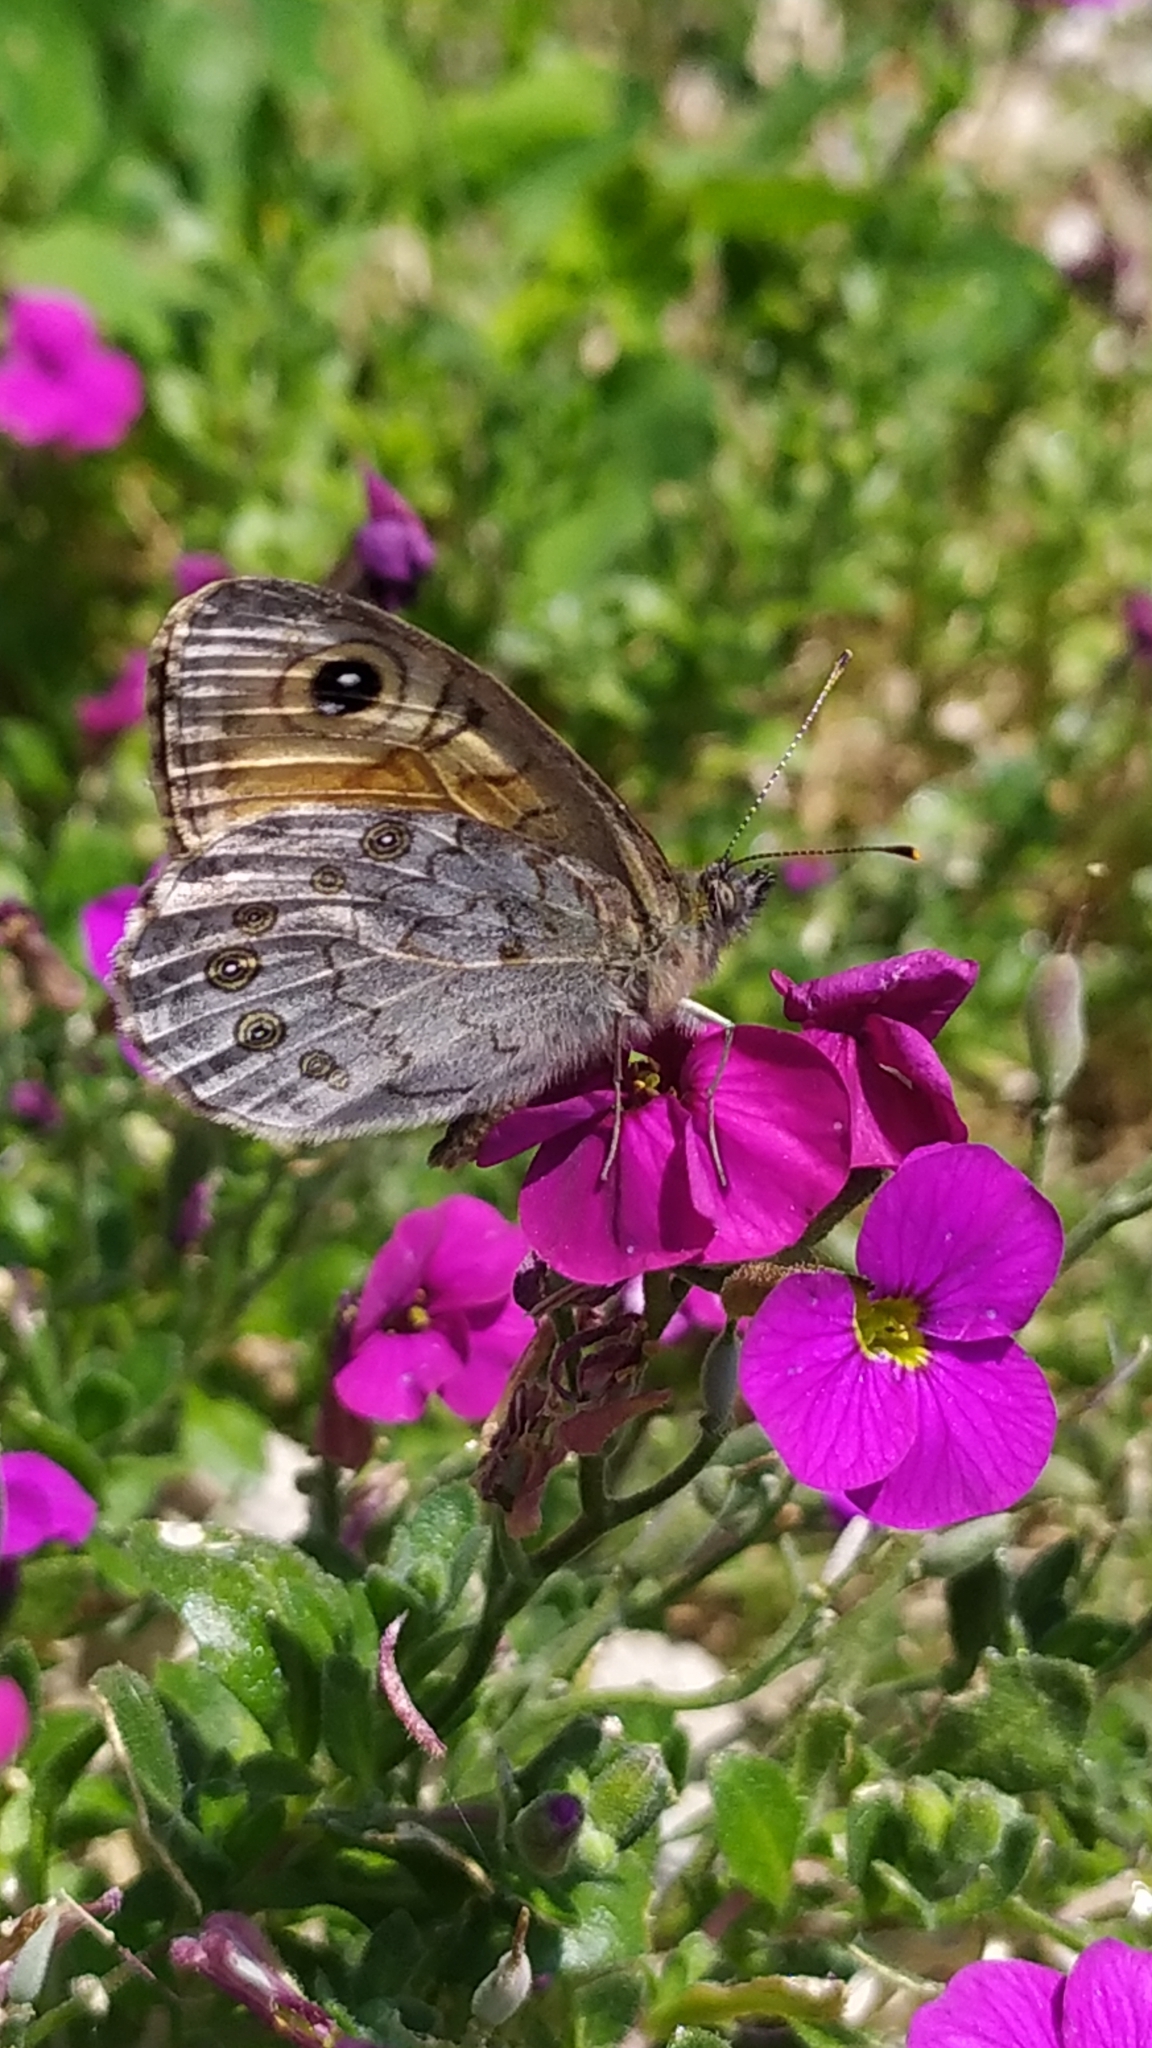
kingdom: Animalia
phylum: Arthropoda
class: Insecta
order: Lepidoptera
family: Nymphalidae
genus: Pararge
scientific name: Pararge Lasiommata maera
